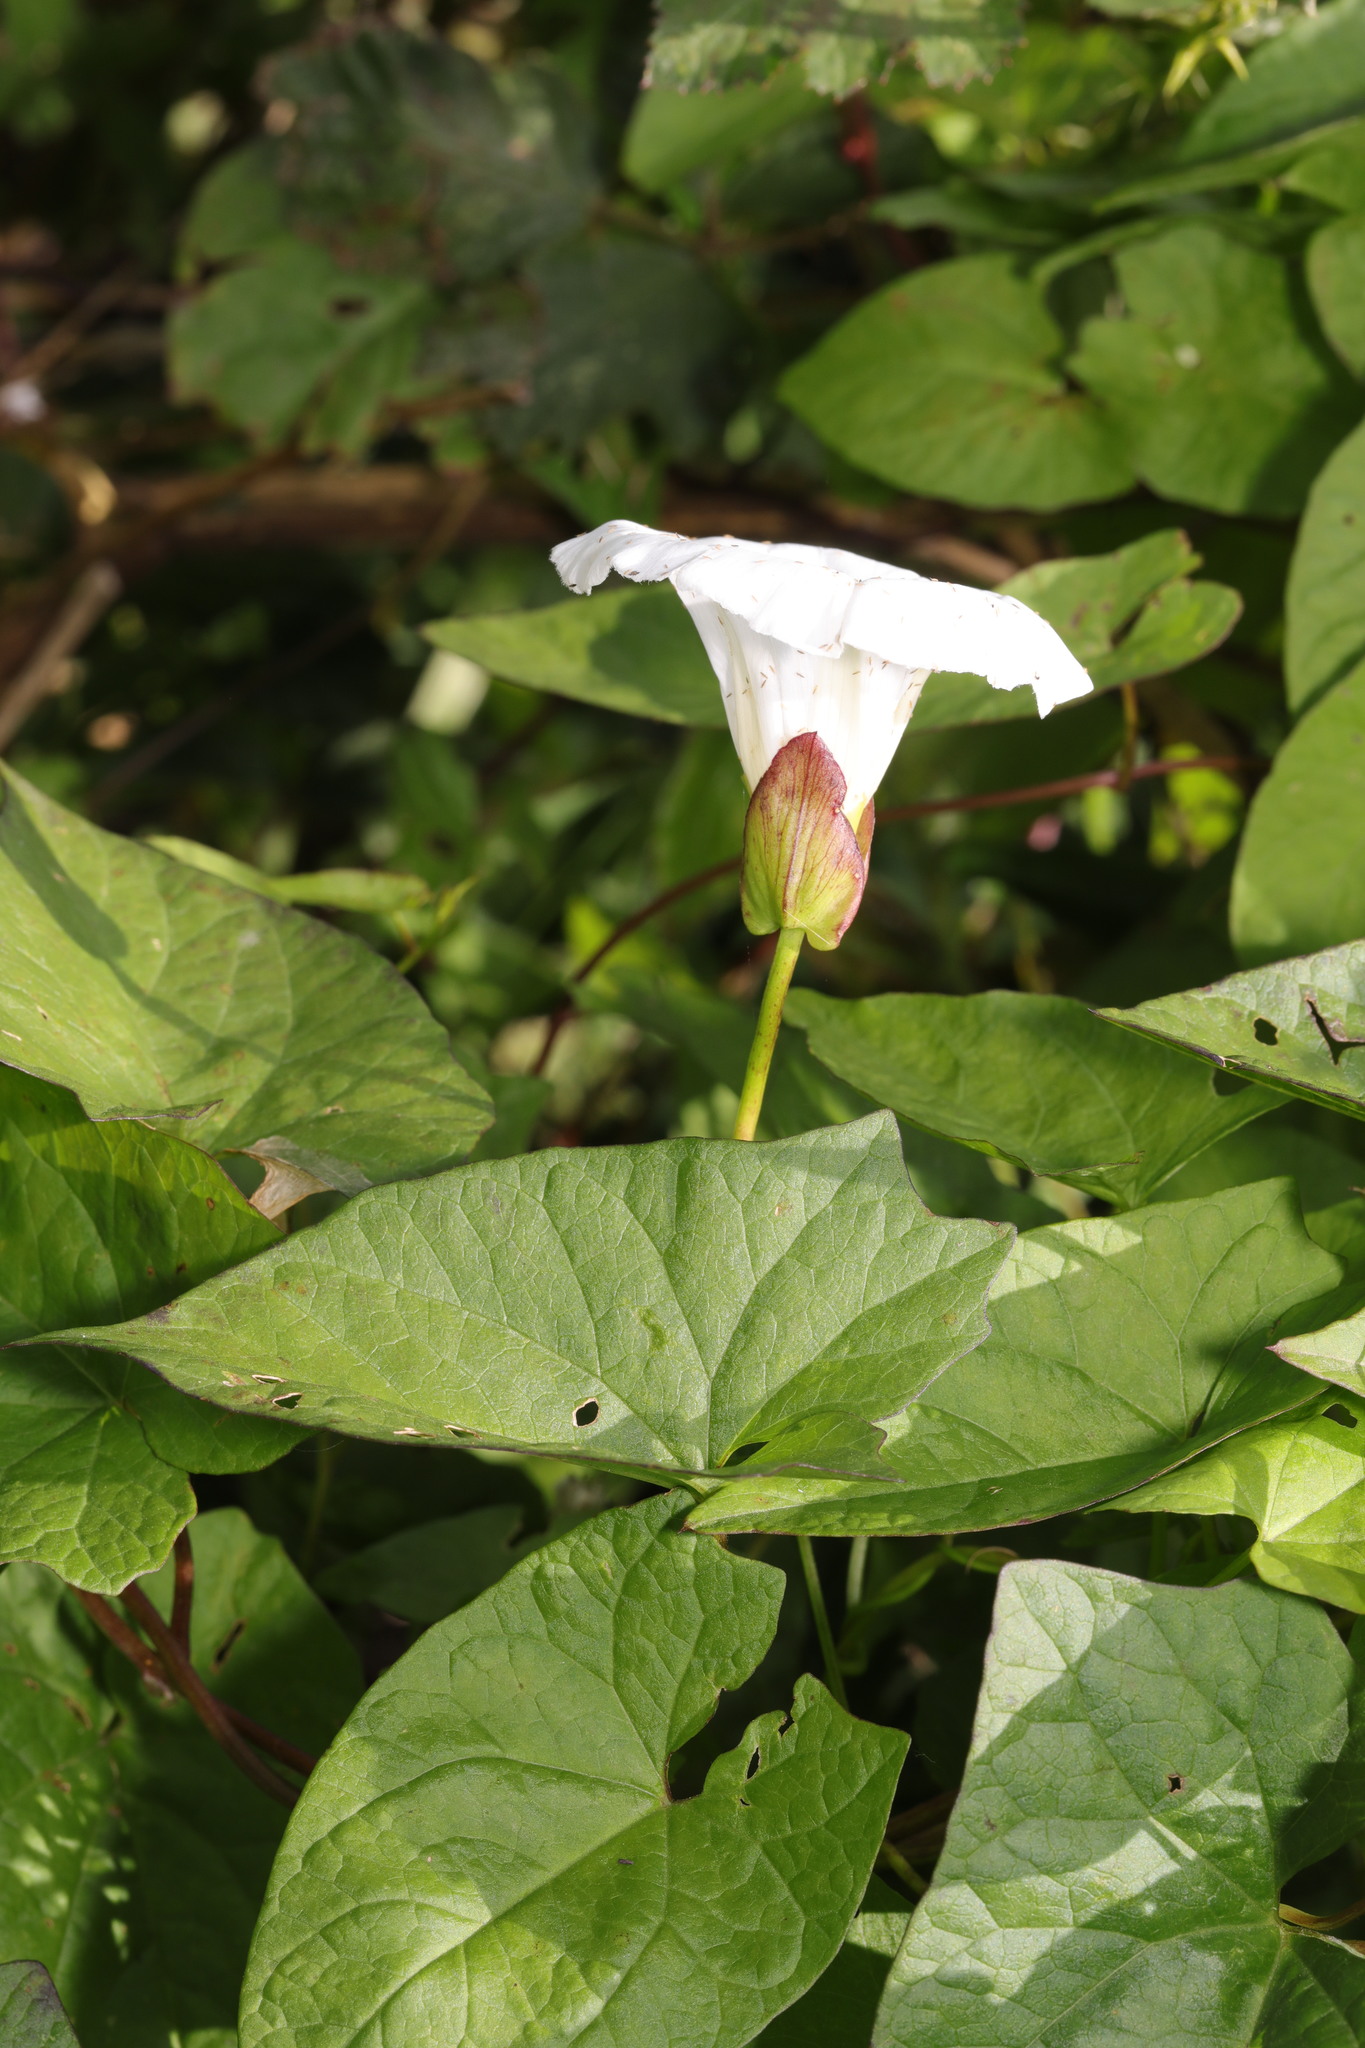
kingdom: Plantae
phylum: Tracheophyta
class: Magnoliopsida
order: Solanales
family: Convolvulaceae
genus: Calystegia
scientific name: Calystegia silvatica
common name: Large bindweed
